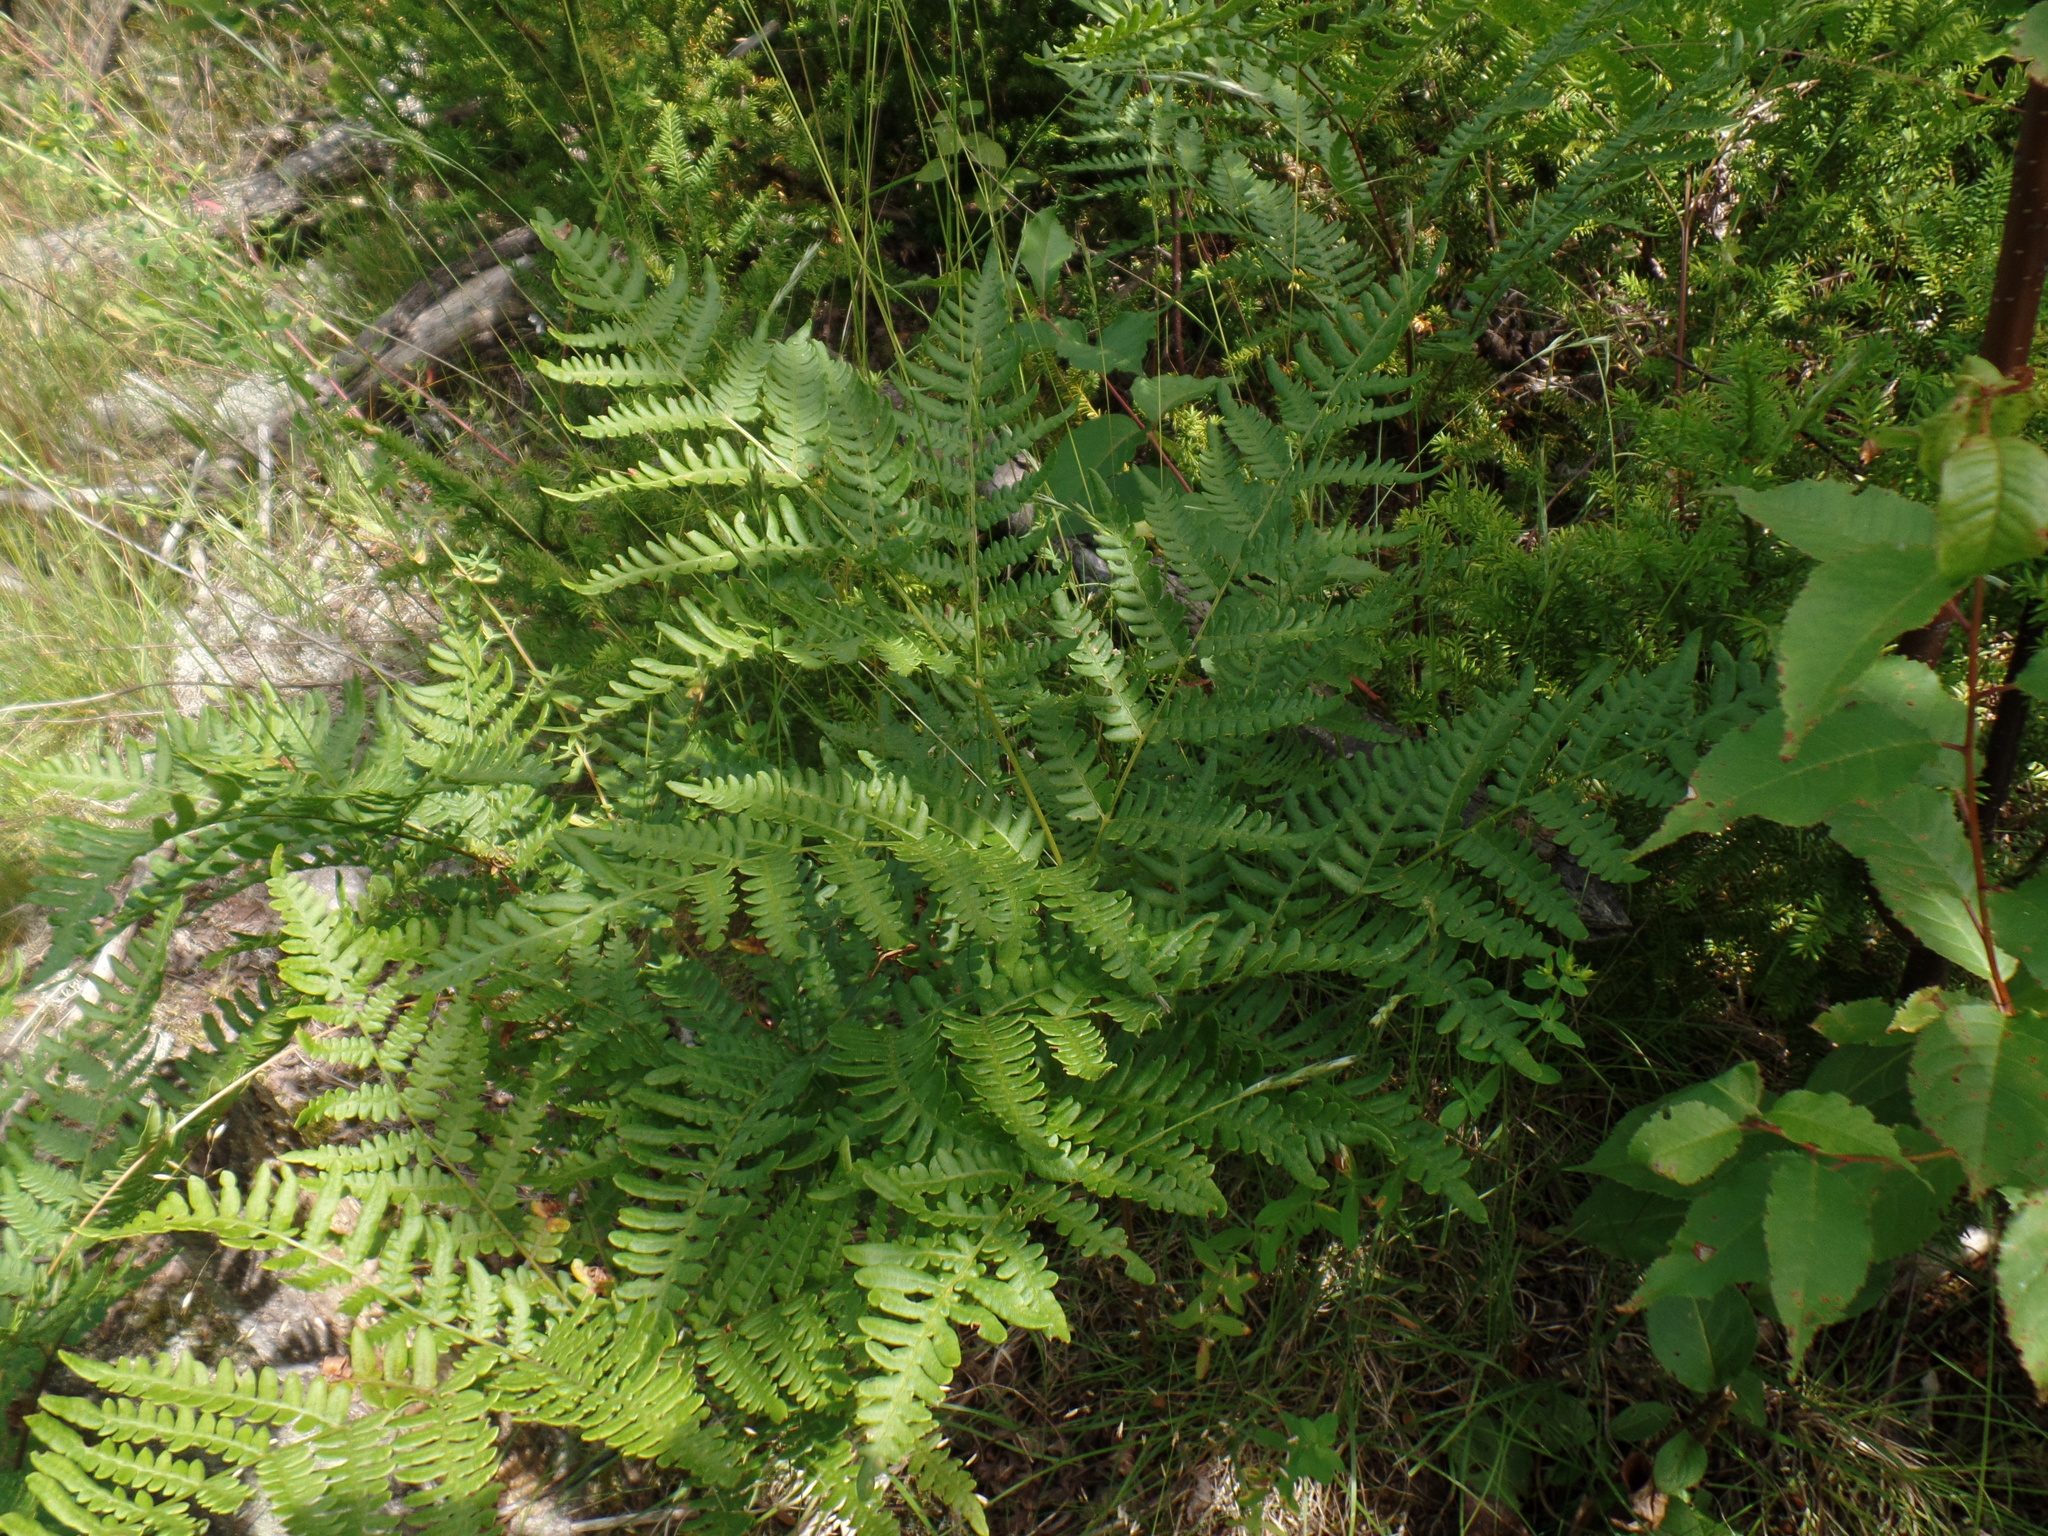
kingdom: Plantae
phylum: Tracheophyta
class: Polypodiopsida
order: Polypodiales
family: Dennstaedtiaceae
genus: Pteridium
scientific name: Pteridium aquilinum
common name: Bracken
